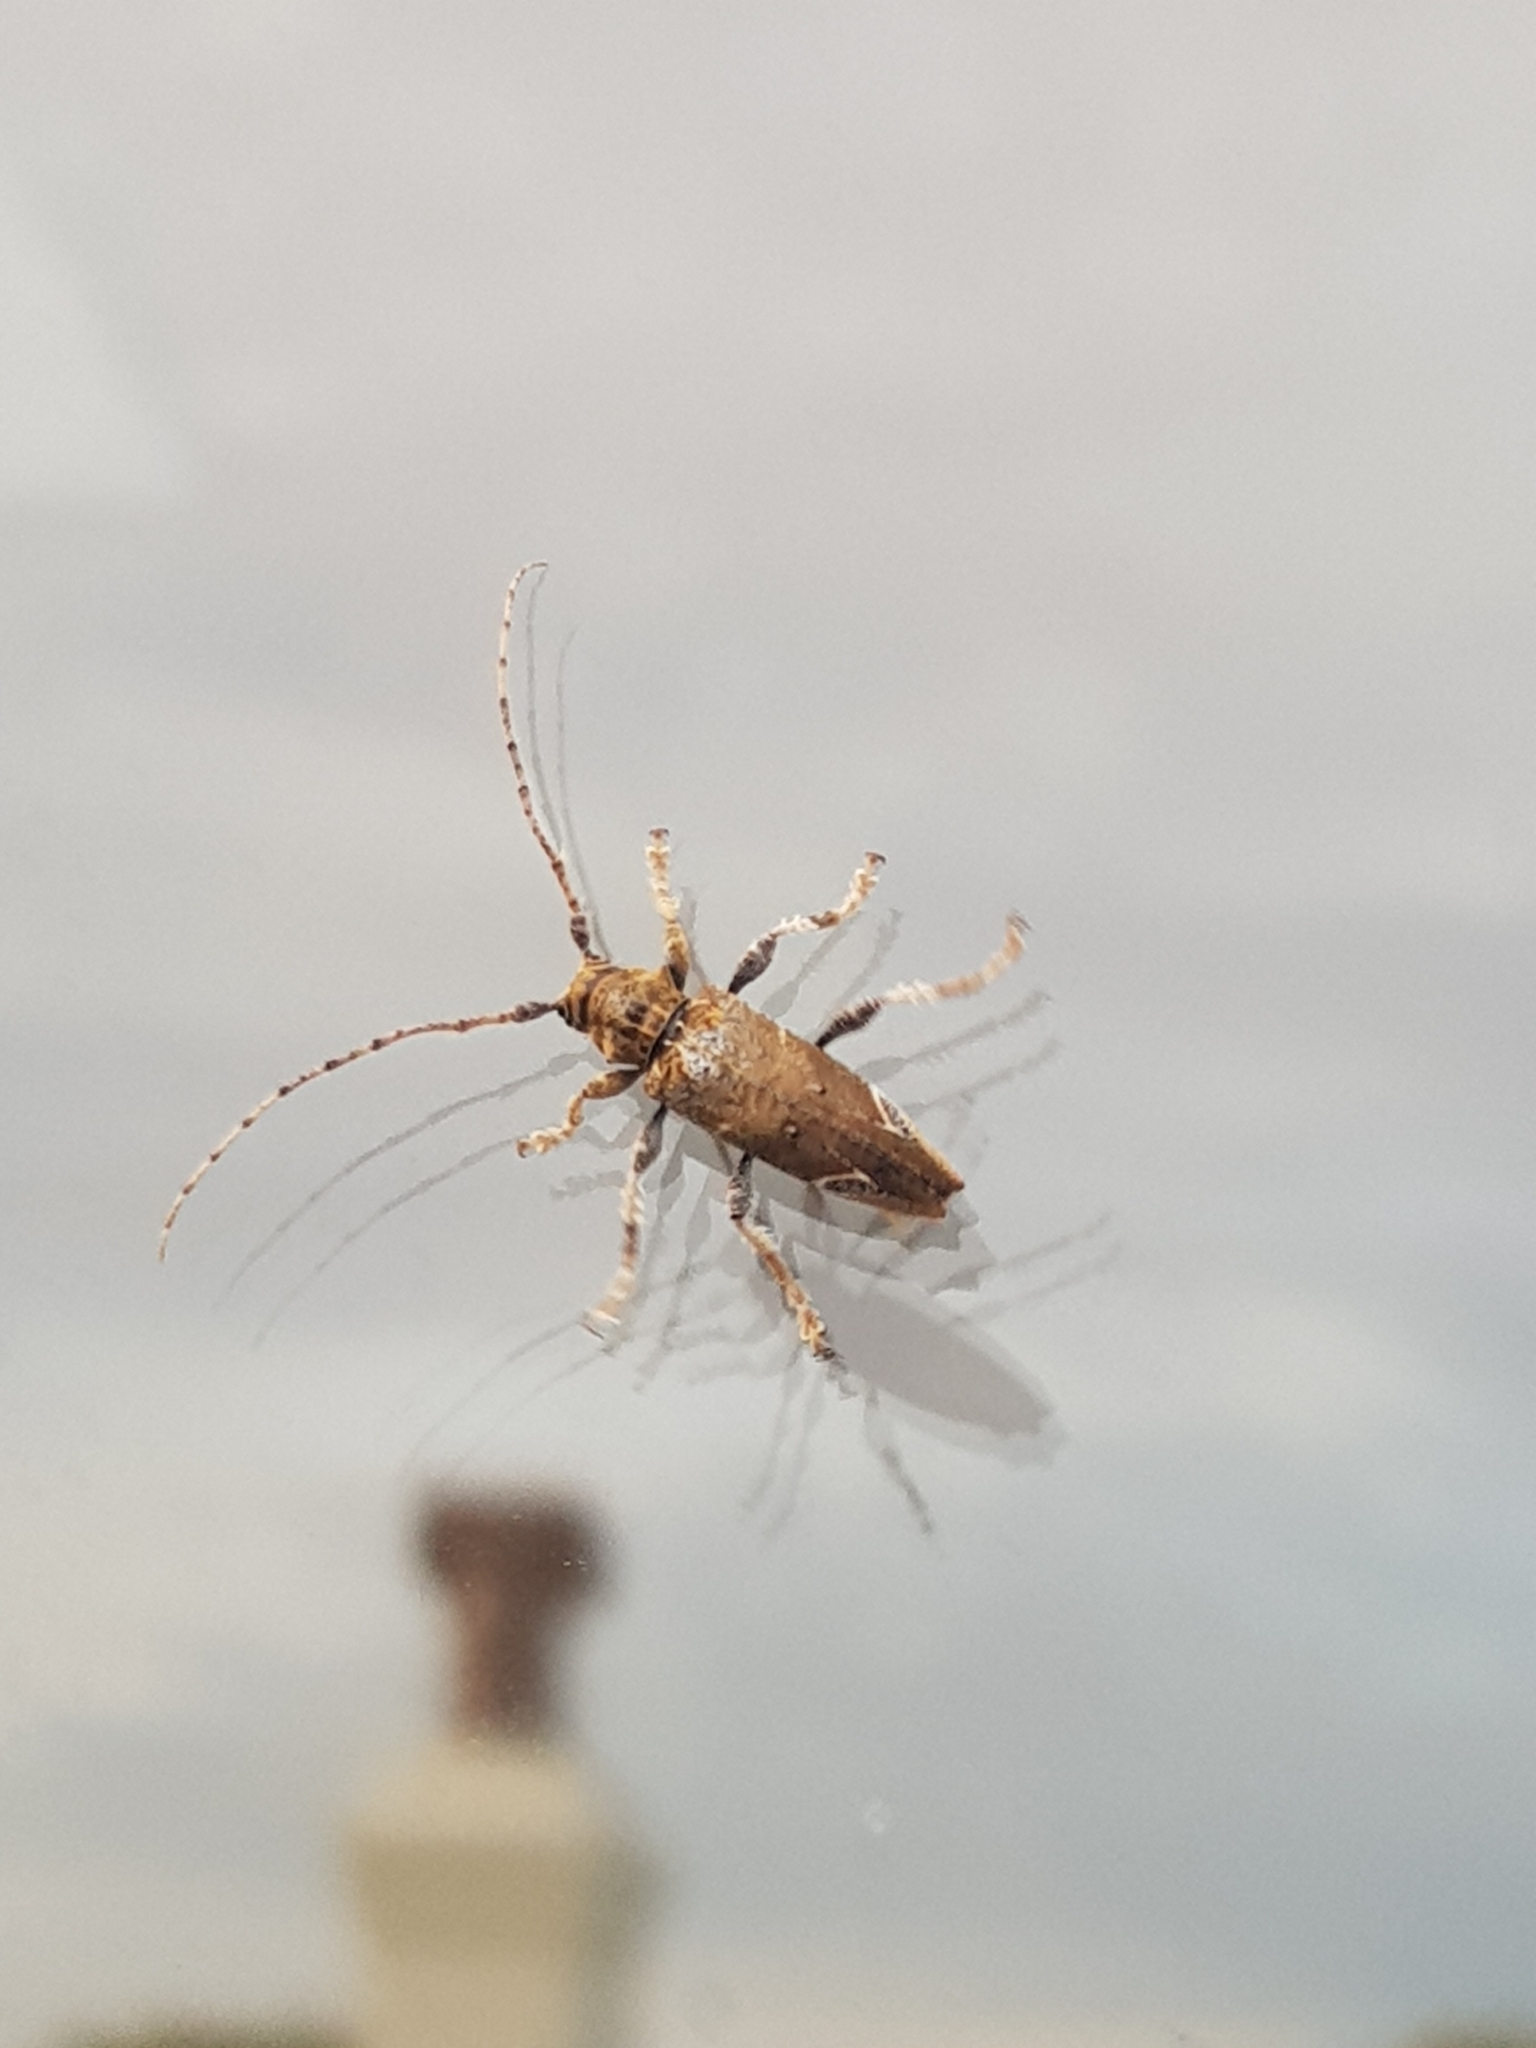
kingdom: Animalia
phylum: Arthropoda
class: Insecta
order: Coleoptera
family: Cerambycidae
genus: Tetrorea
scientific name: Tetrorea cilipes
